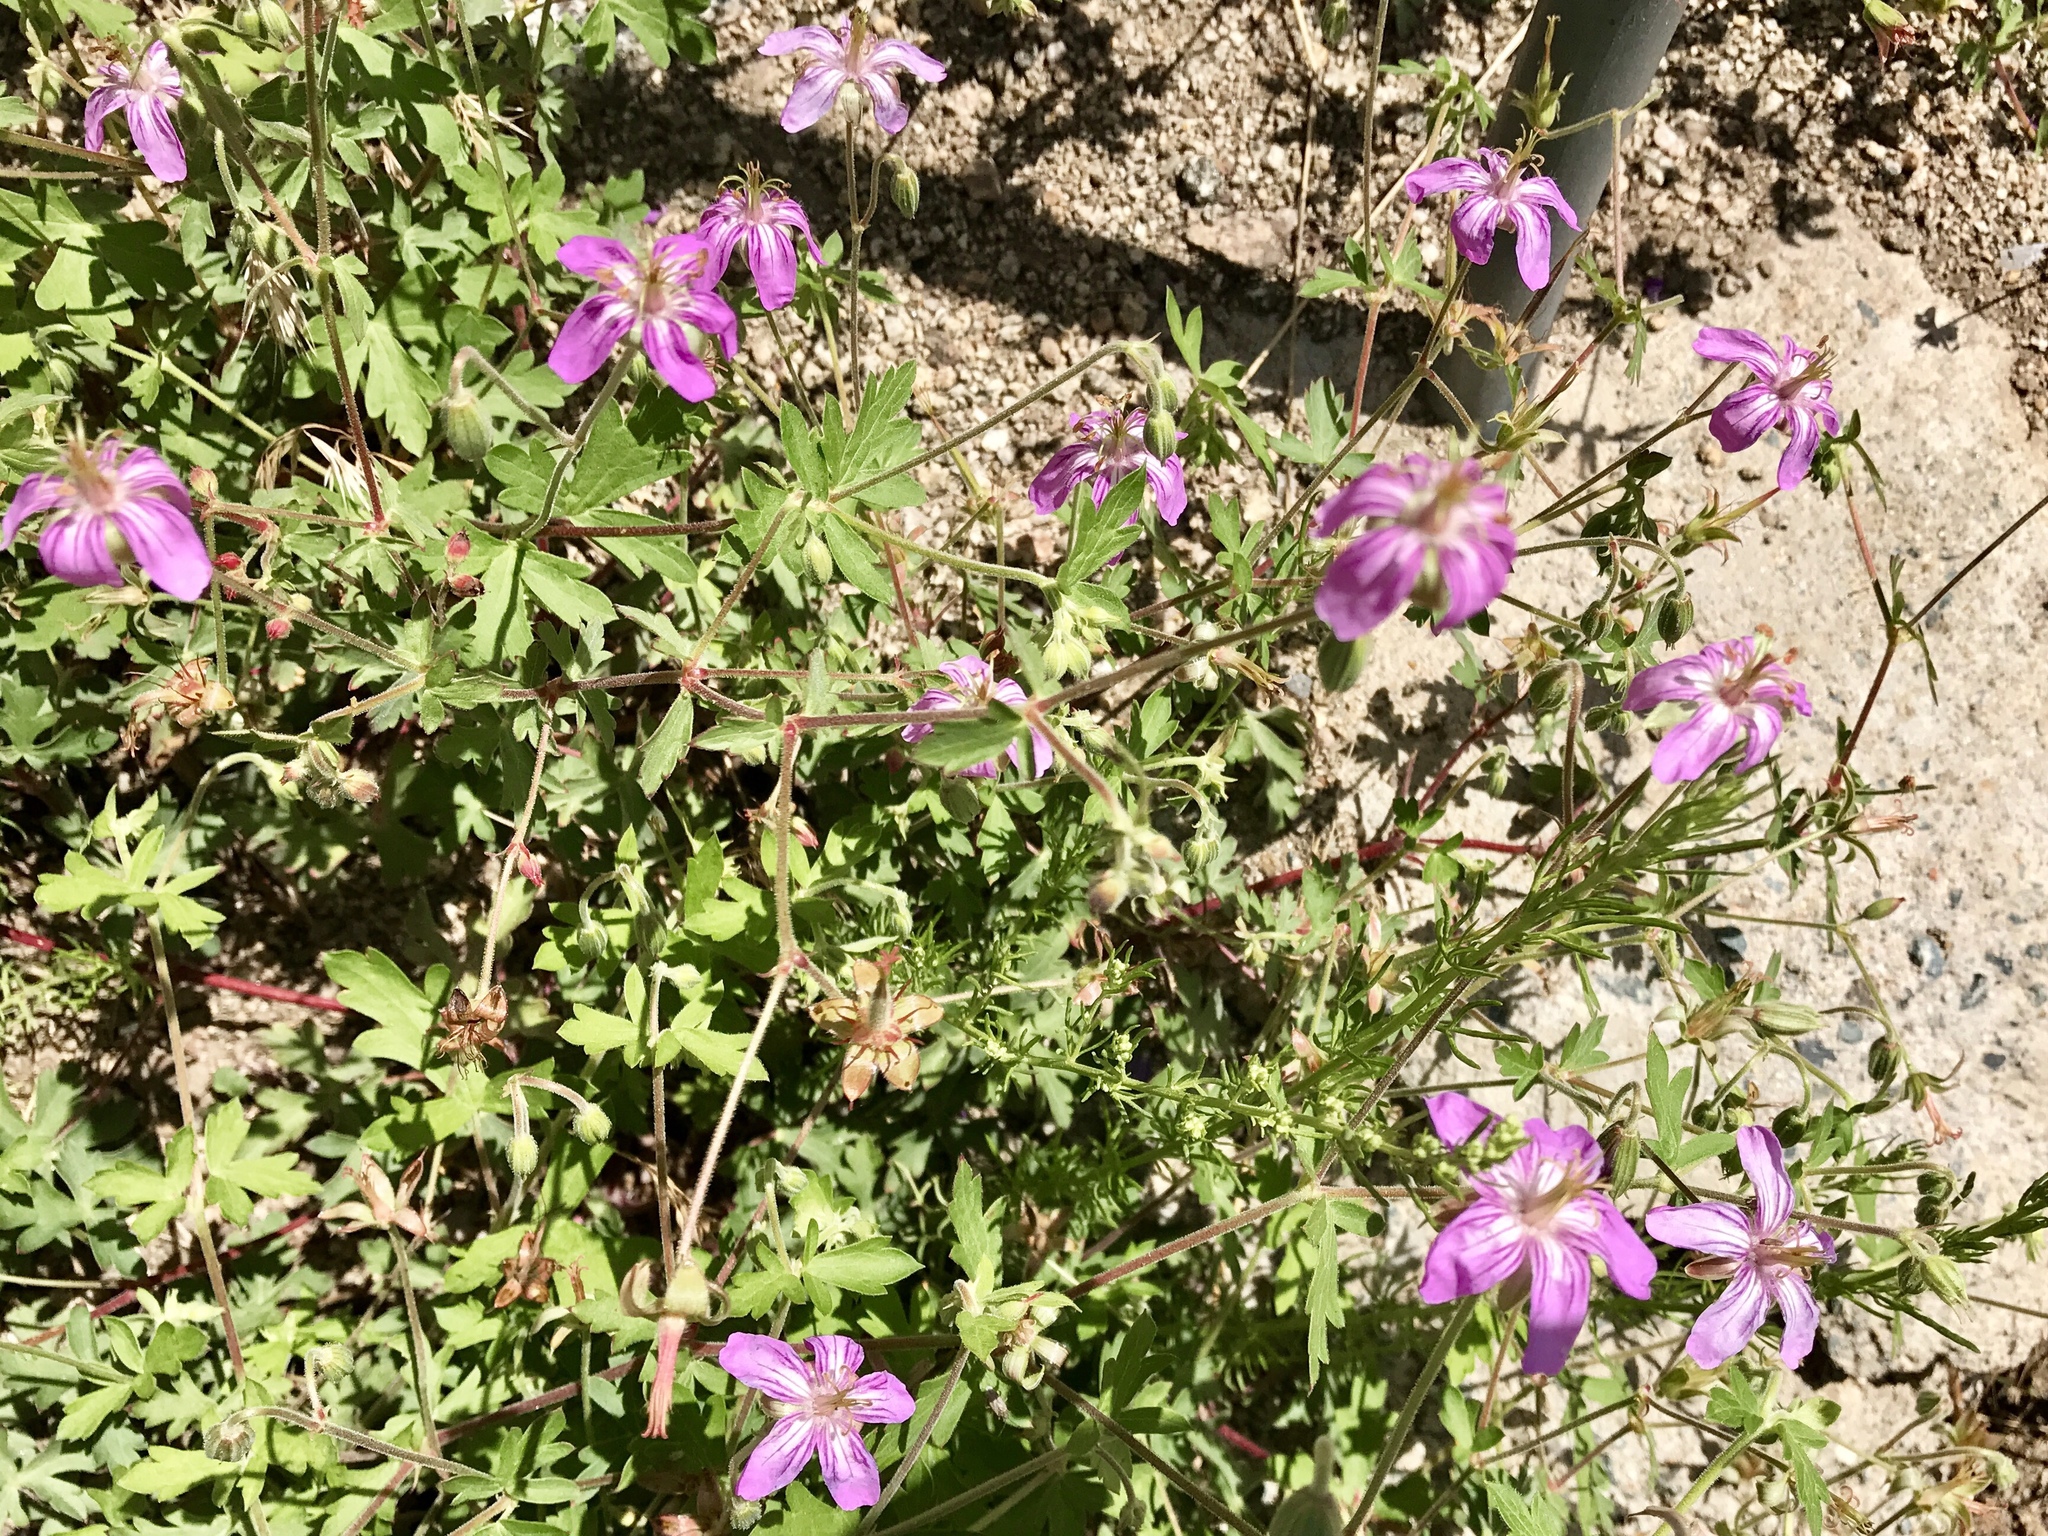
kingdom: Plantae
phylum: Tracheophyta
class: Magnoliopsida
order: Geraniales
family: Geraniaceae
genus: Geranium
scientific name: Geranium caespitosum
